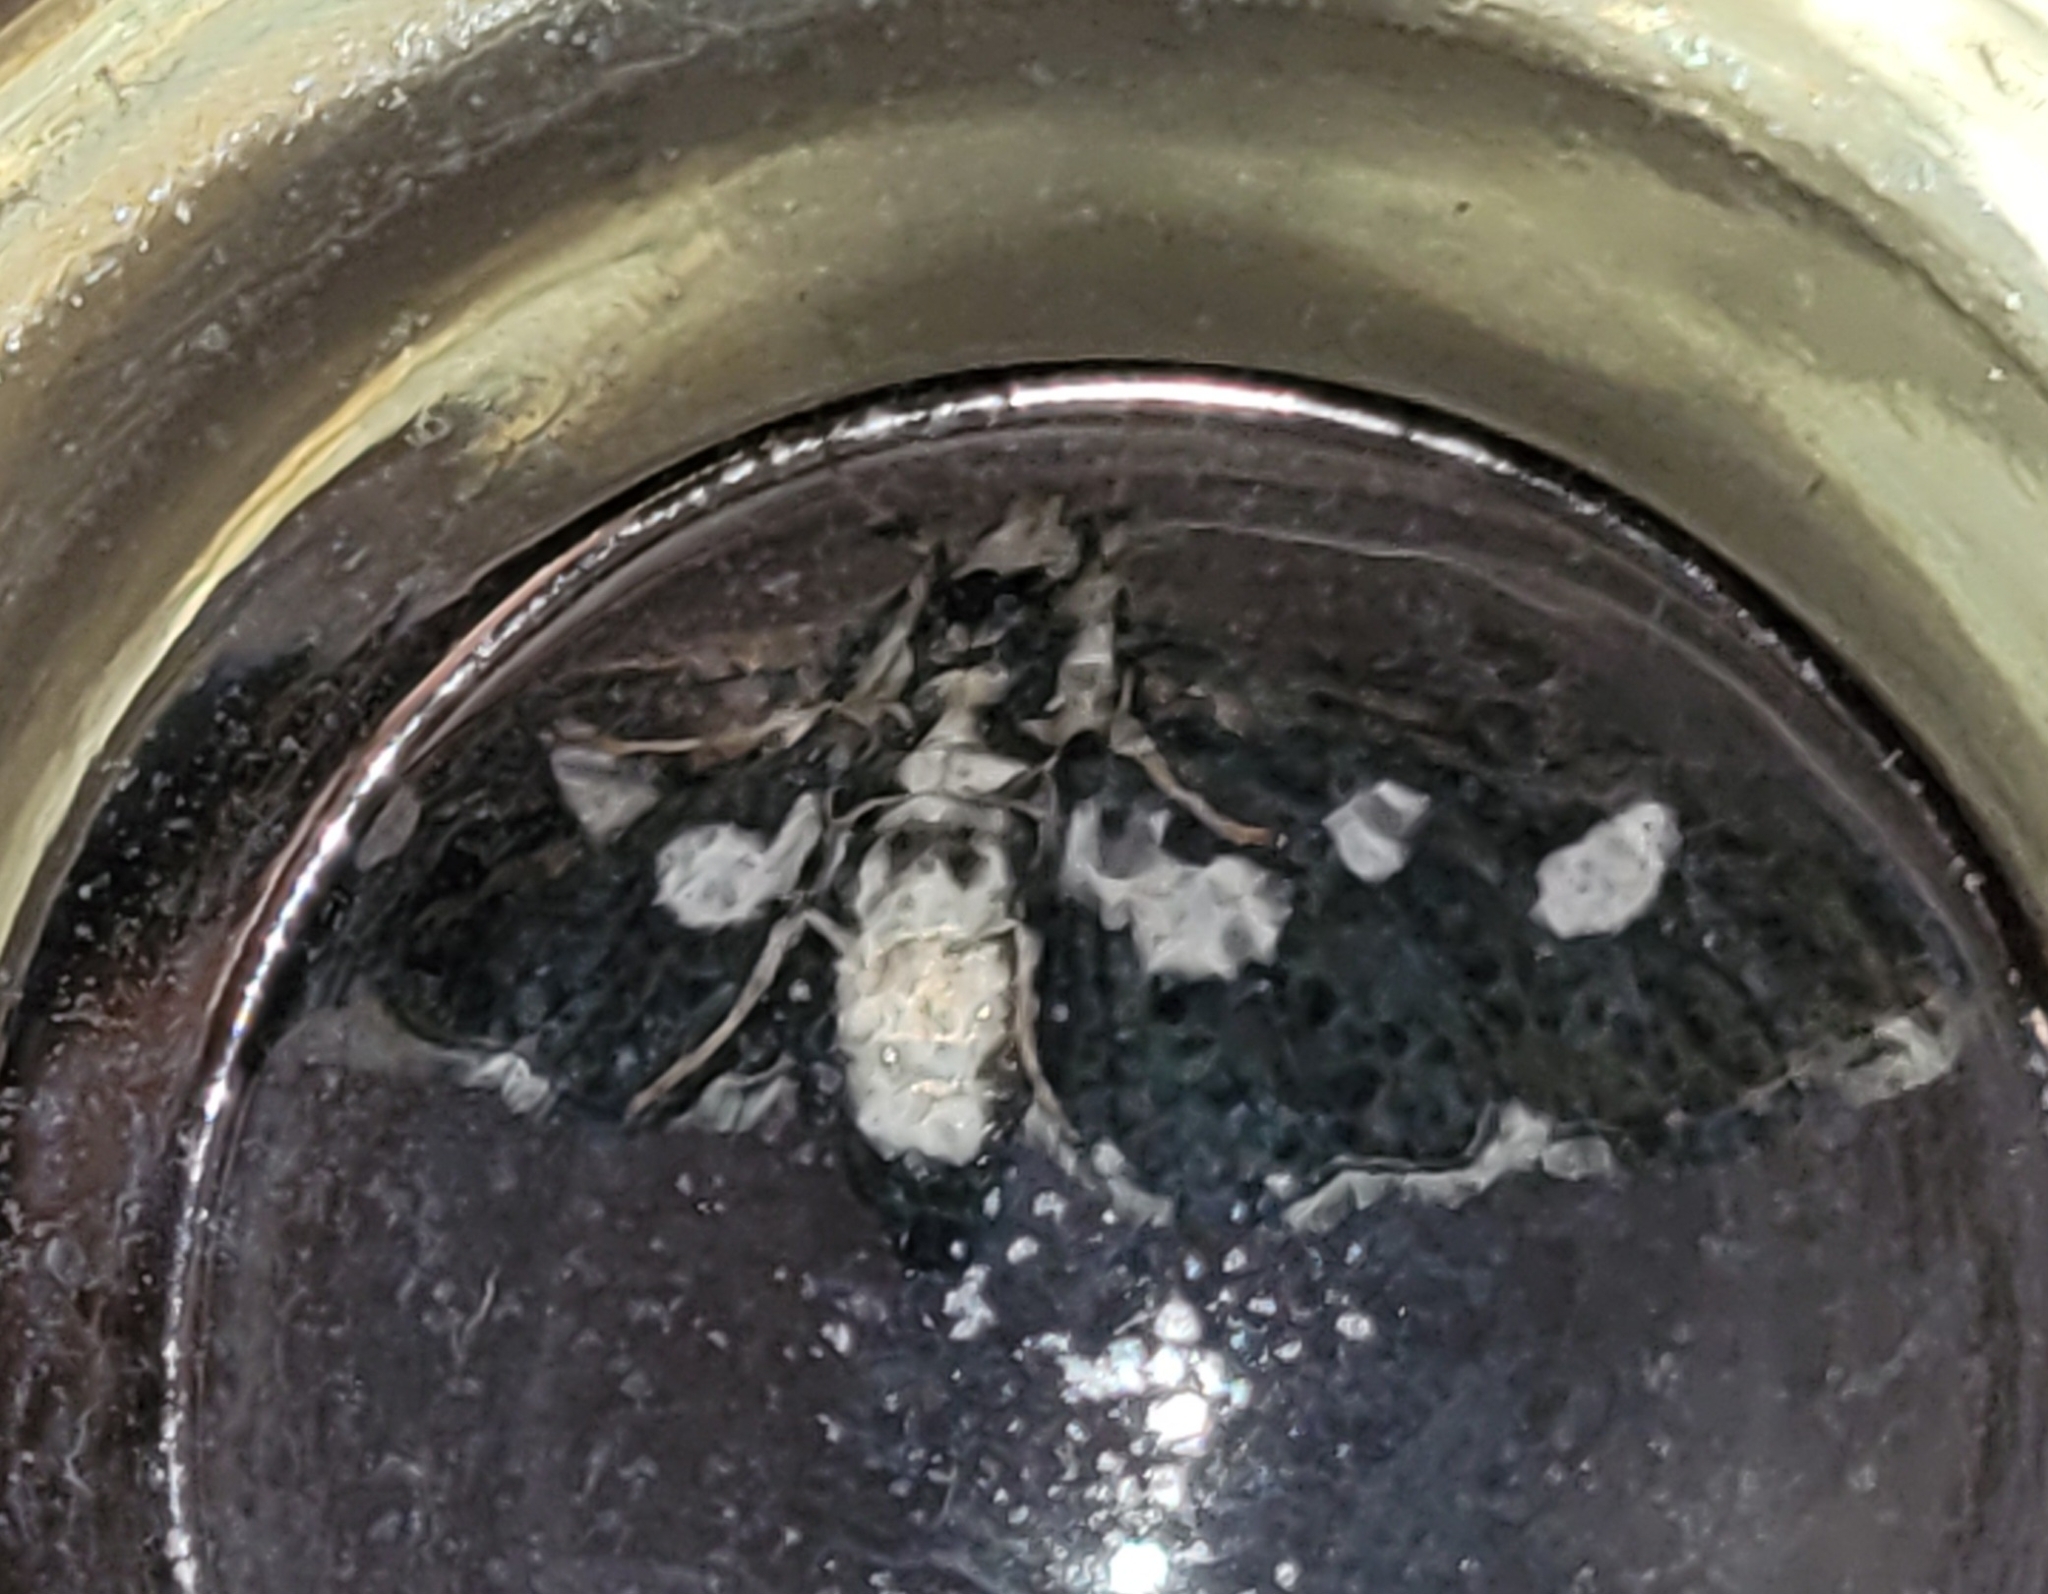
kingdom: Animalia
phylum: Arthropoda
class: Insecta
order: Lepidoptera
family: Crambidae
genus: Desmia
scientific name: Desmia funeralis
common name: Grape leaf folder moth
